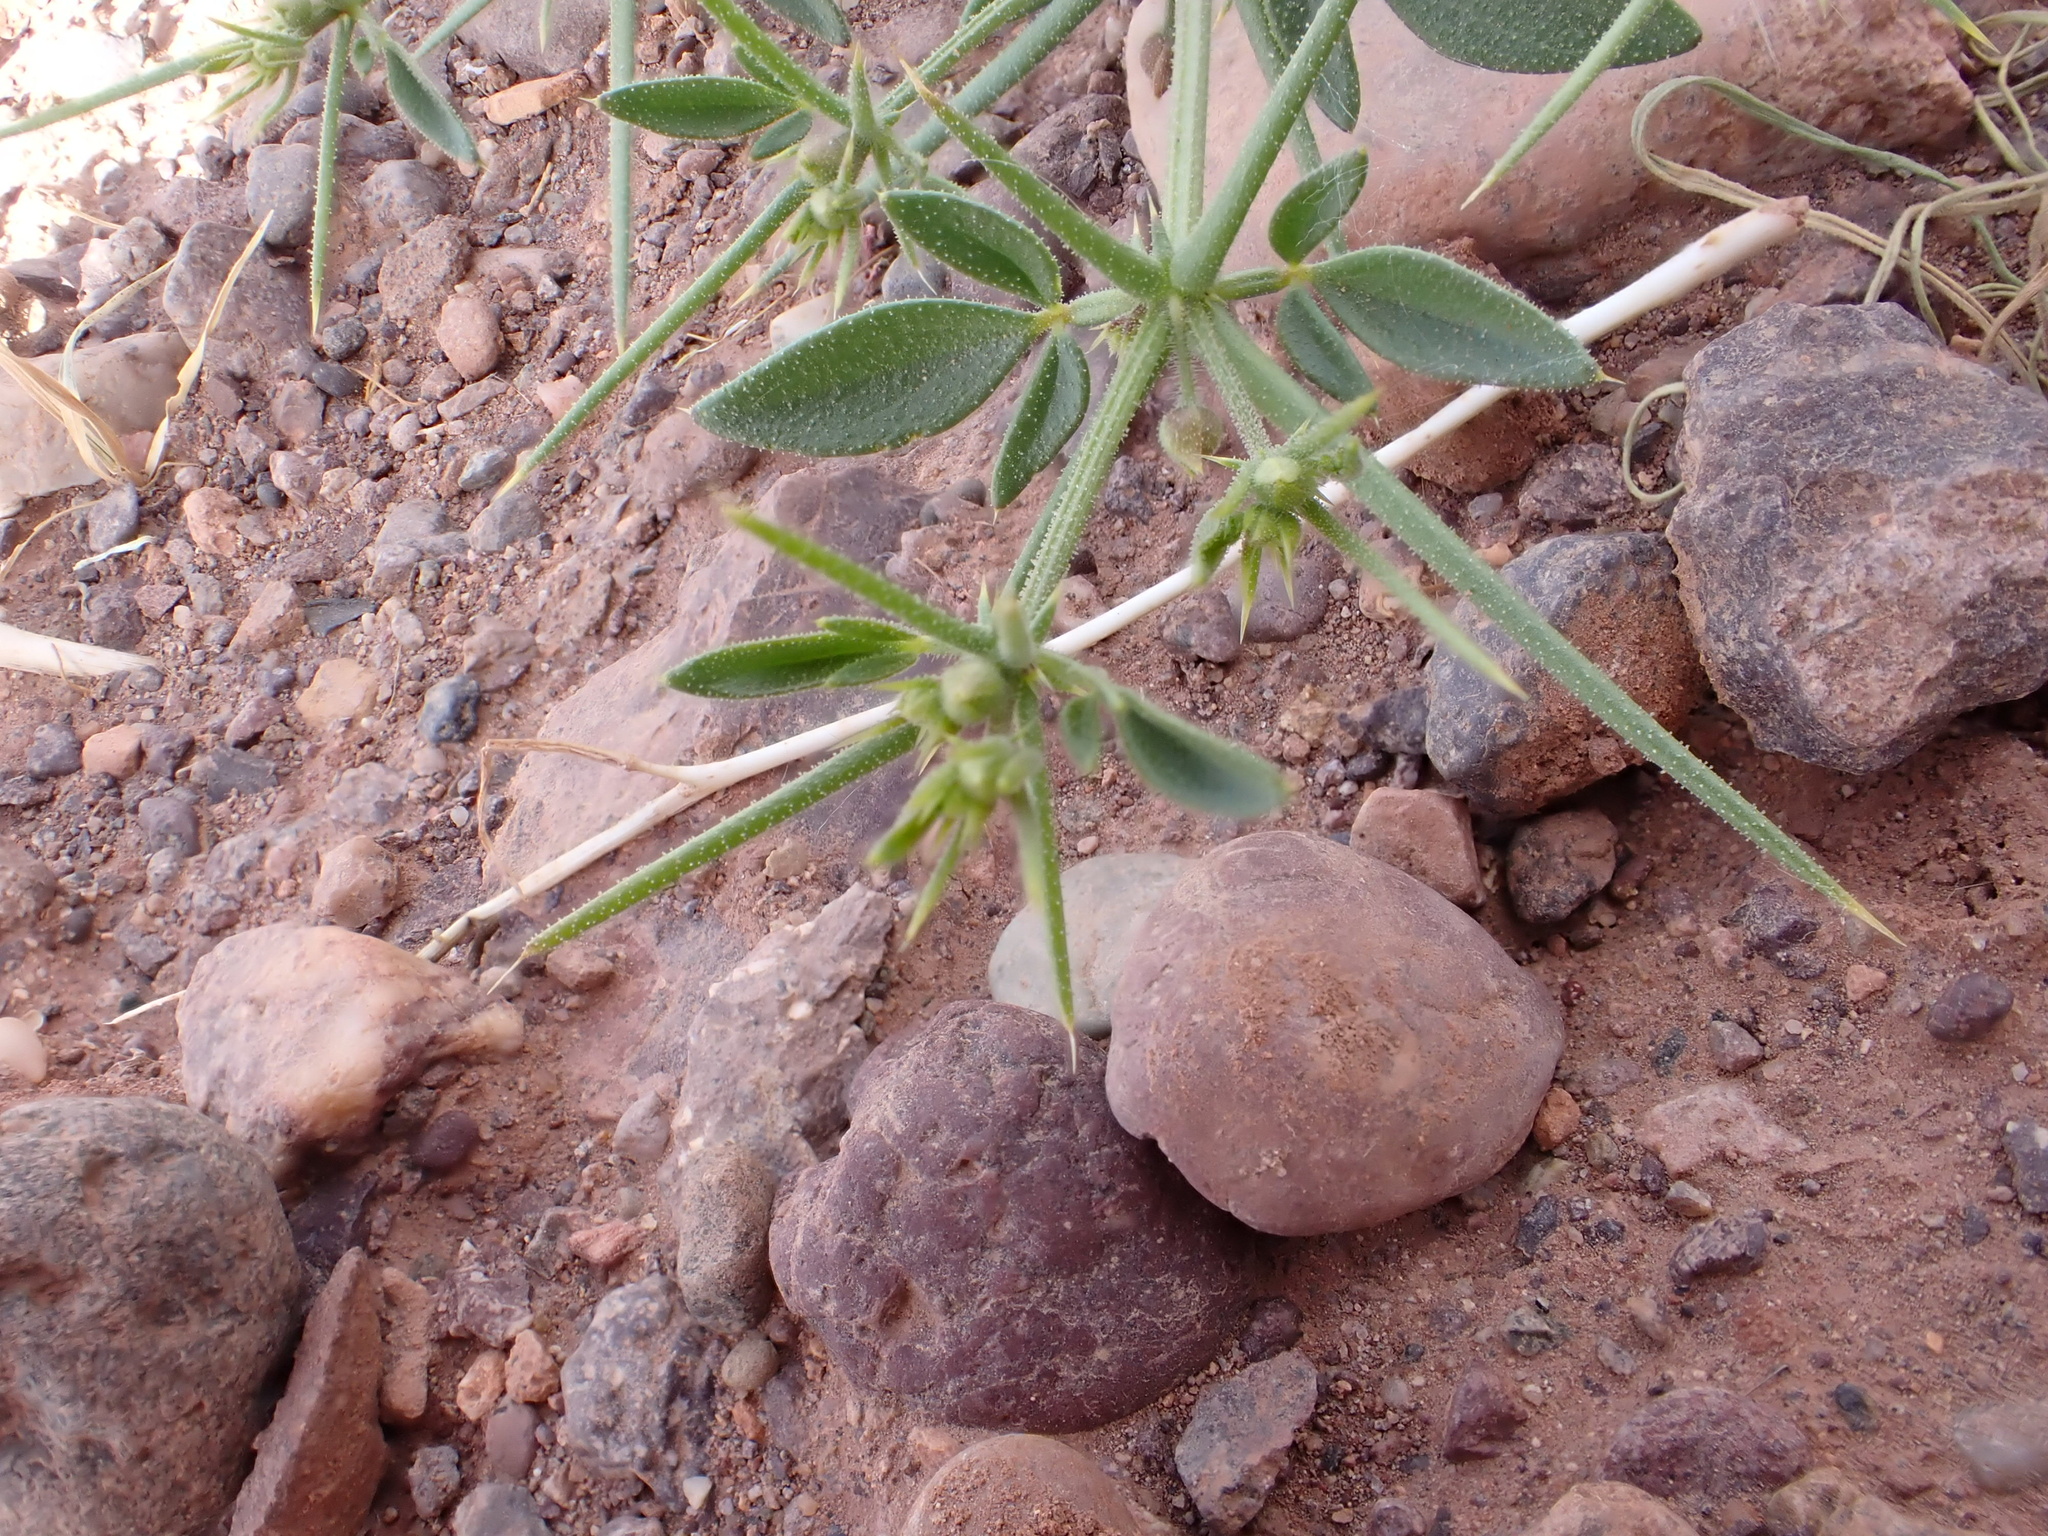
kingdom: Plantae
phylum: Tracheophyta
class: Magnoliopsida
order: Zygophyllales
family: Zygophyllaceae
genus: Fagonia
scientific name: Fagonia longispina
